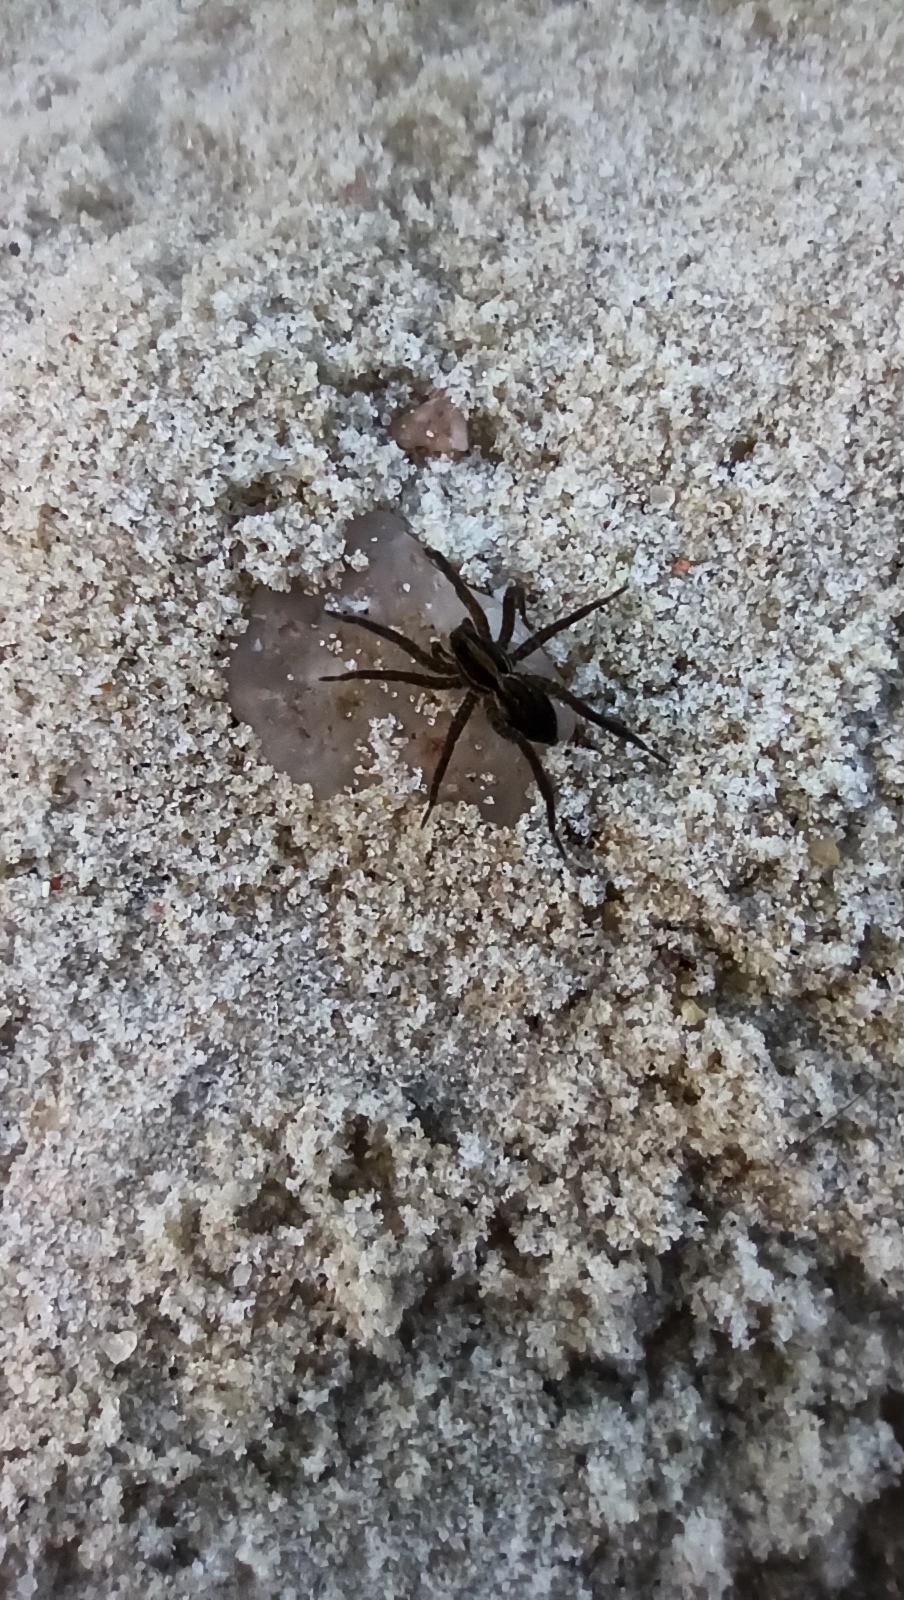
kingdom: Animalia
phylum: Arthropoda
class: Arachnida
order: Araneae
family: Lycosidae
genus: Alopecosa
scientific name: Alopecosa moesta
